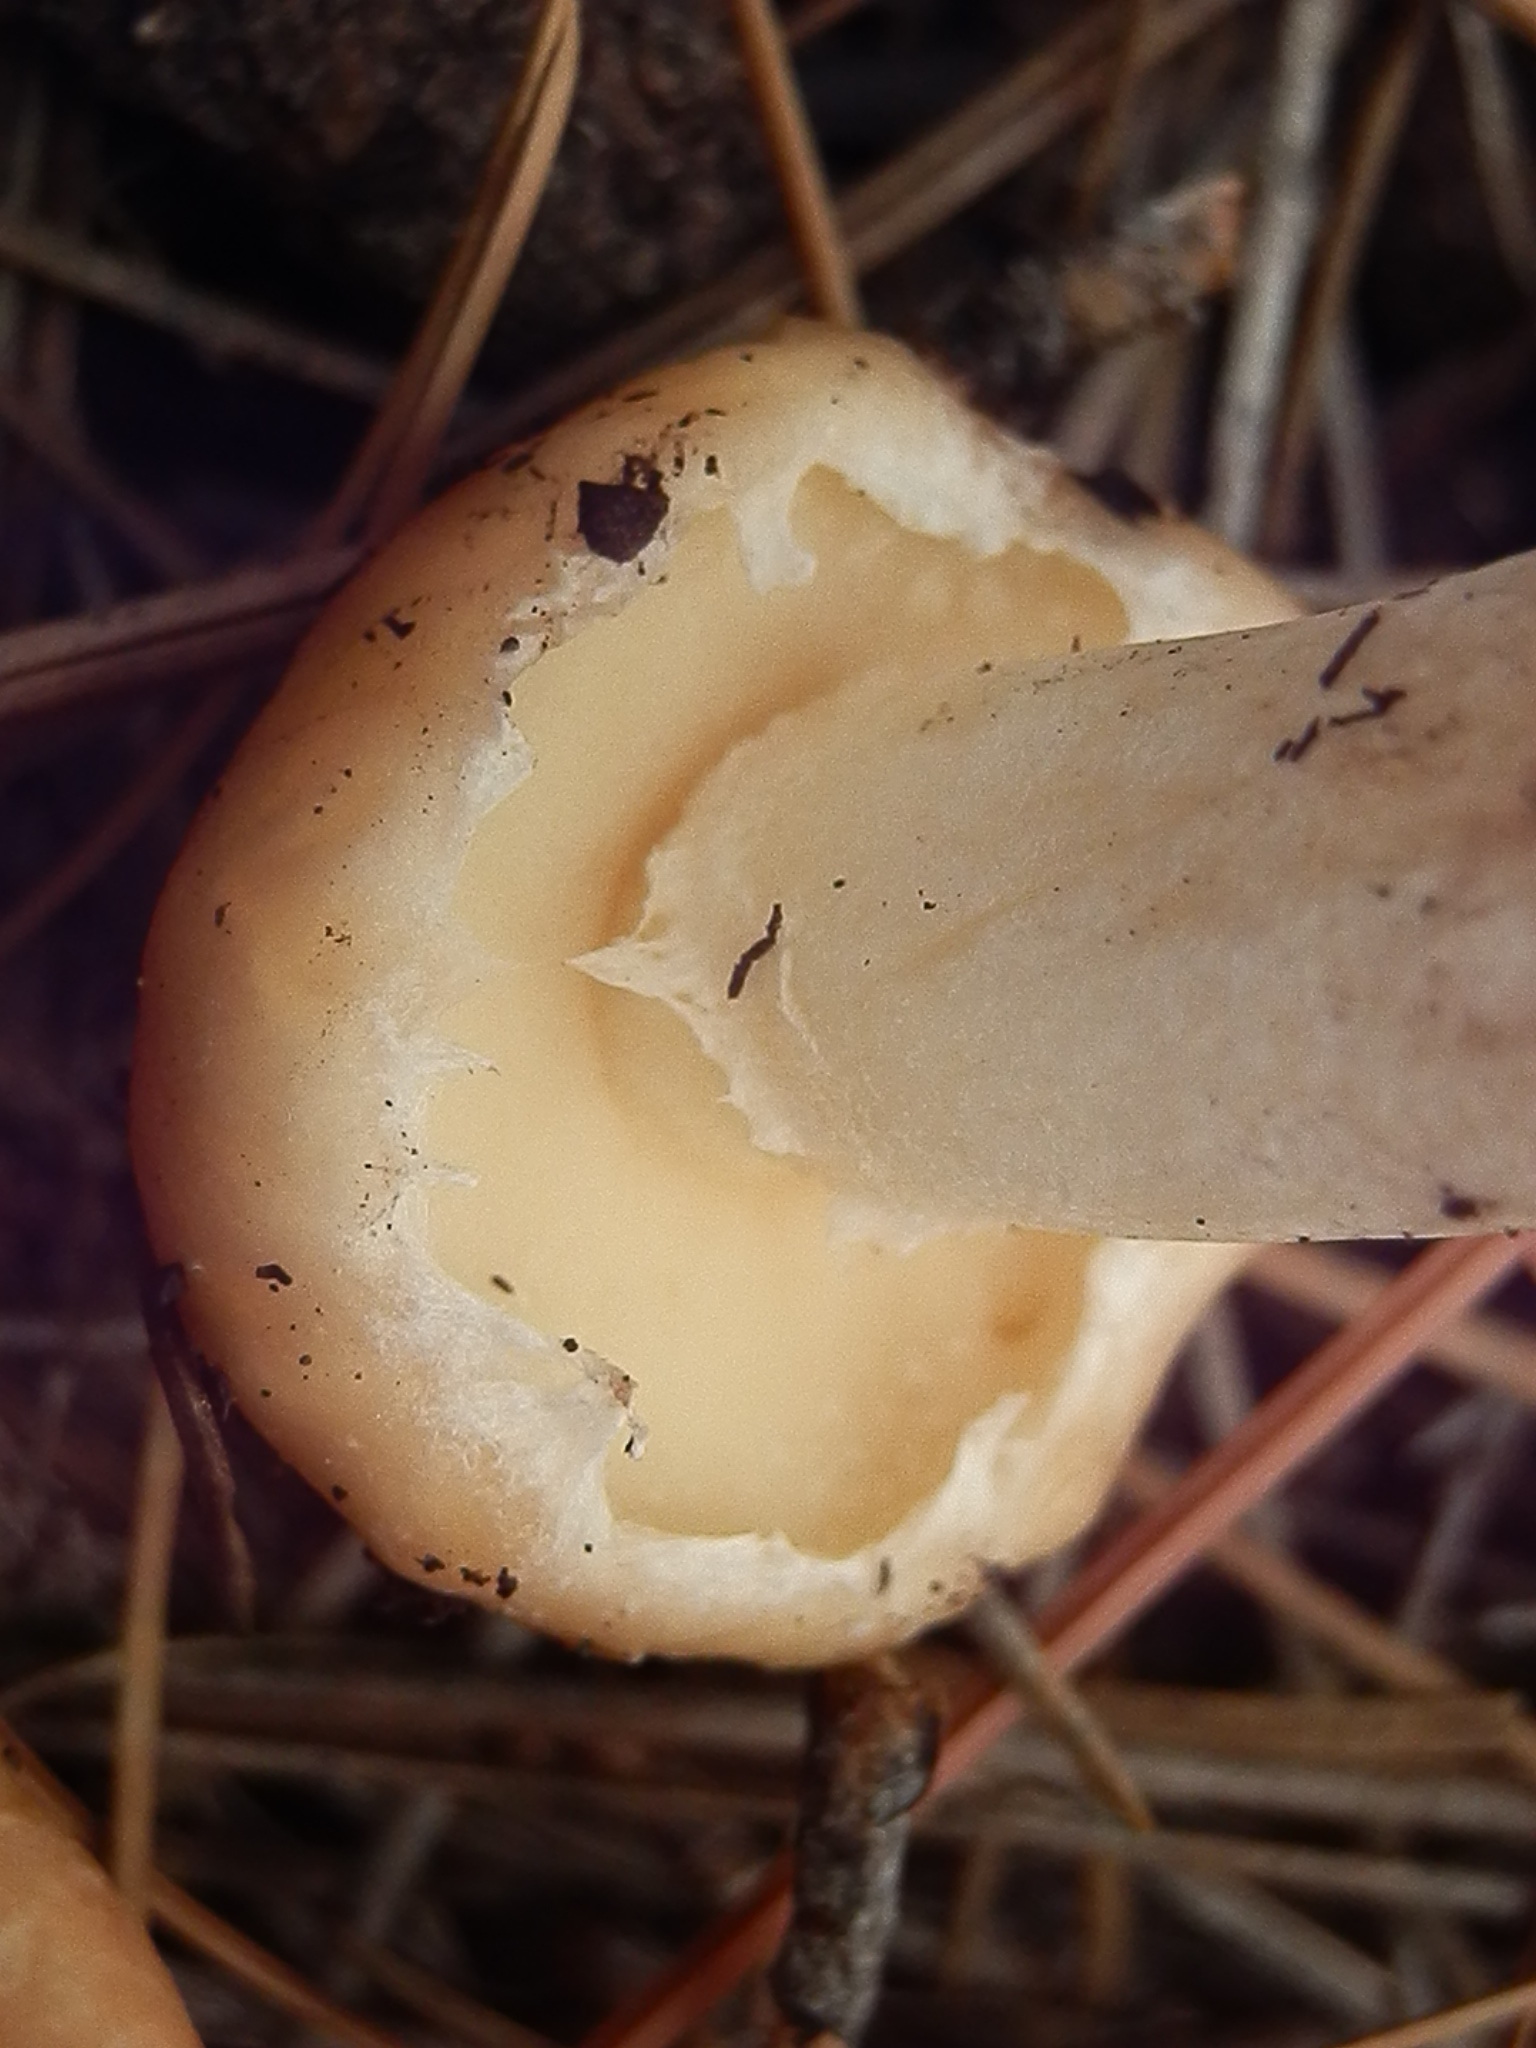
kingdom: Fungi
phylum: Basidiomycota
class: Agaricomycetes
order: Boletales
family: Suillaceae
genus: Suillus
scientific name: Suillus occidentalis
